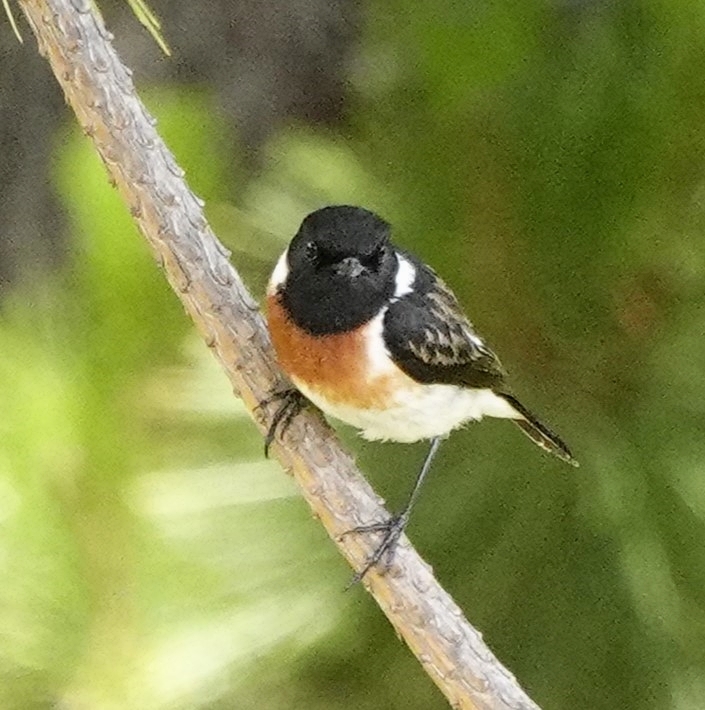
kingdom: Animalia
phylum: Chordata
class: Aves
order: Passeriformes
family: Muscicapidae
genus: Saxicola
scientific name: Saxicola torquatus
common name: African stonechat
